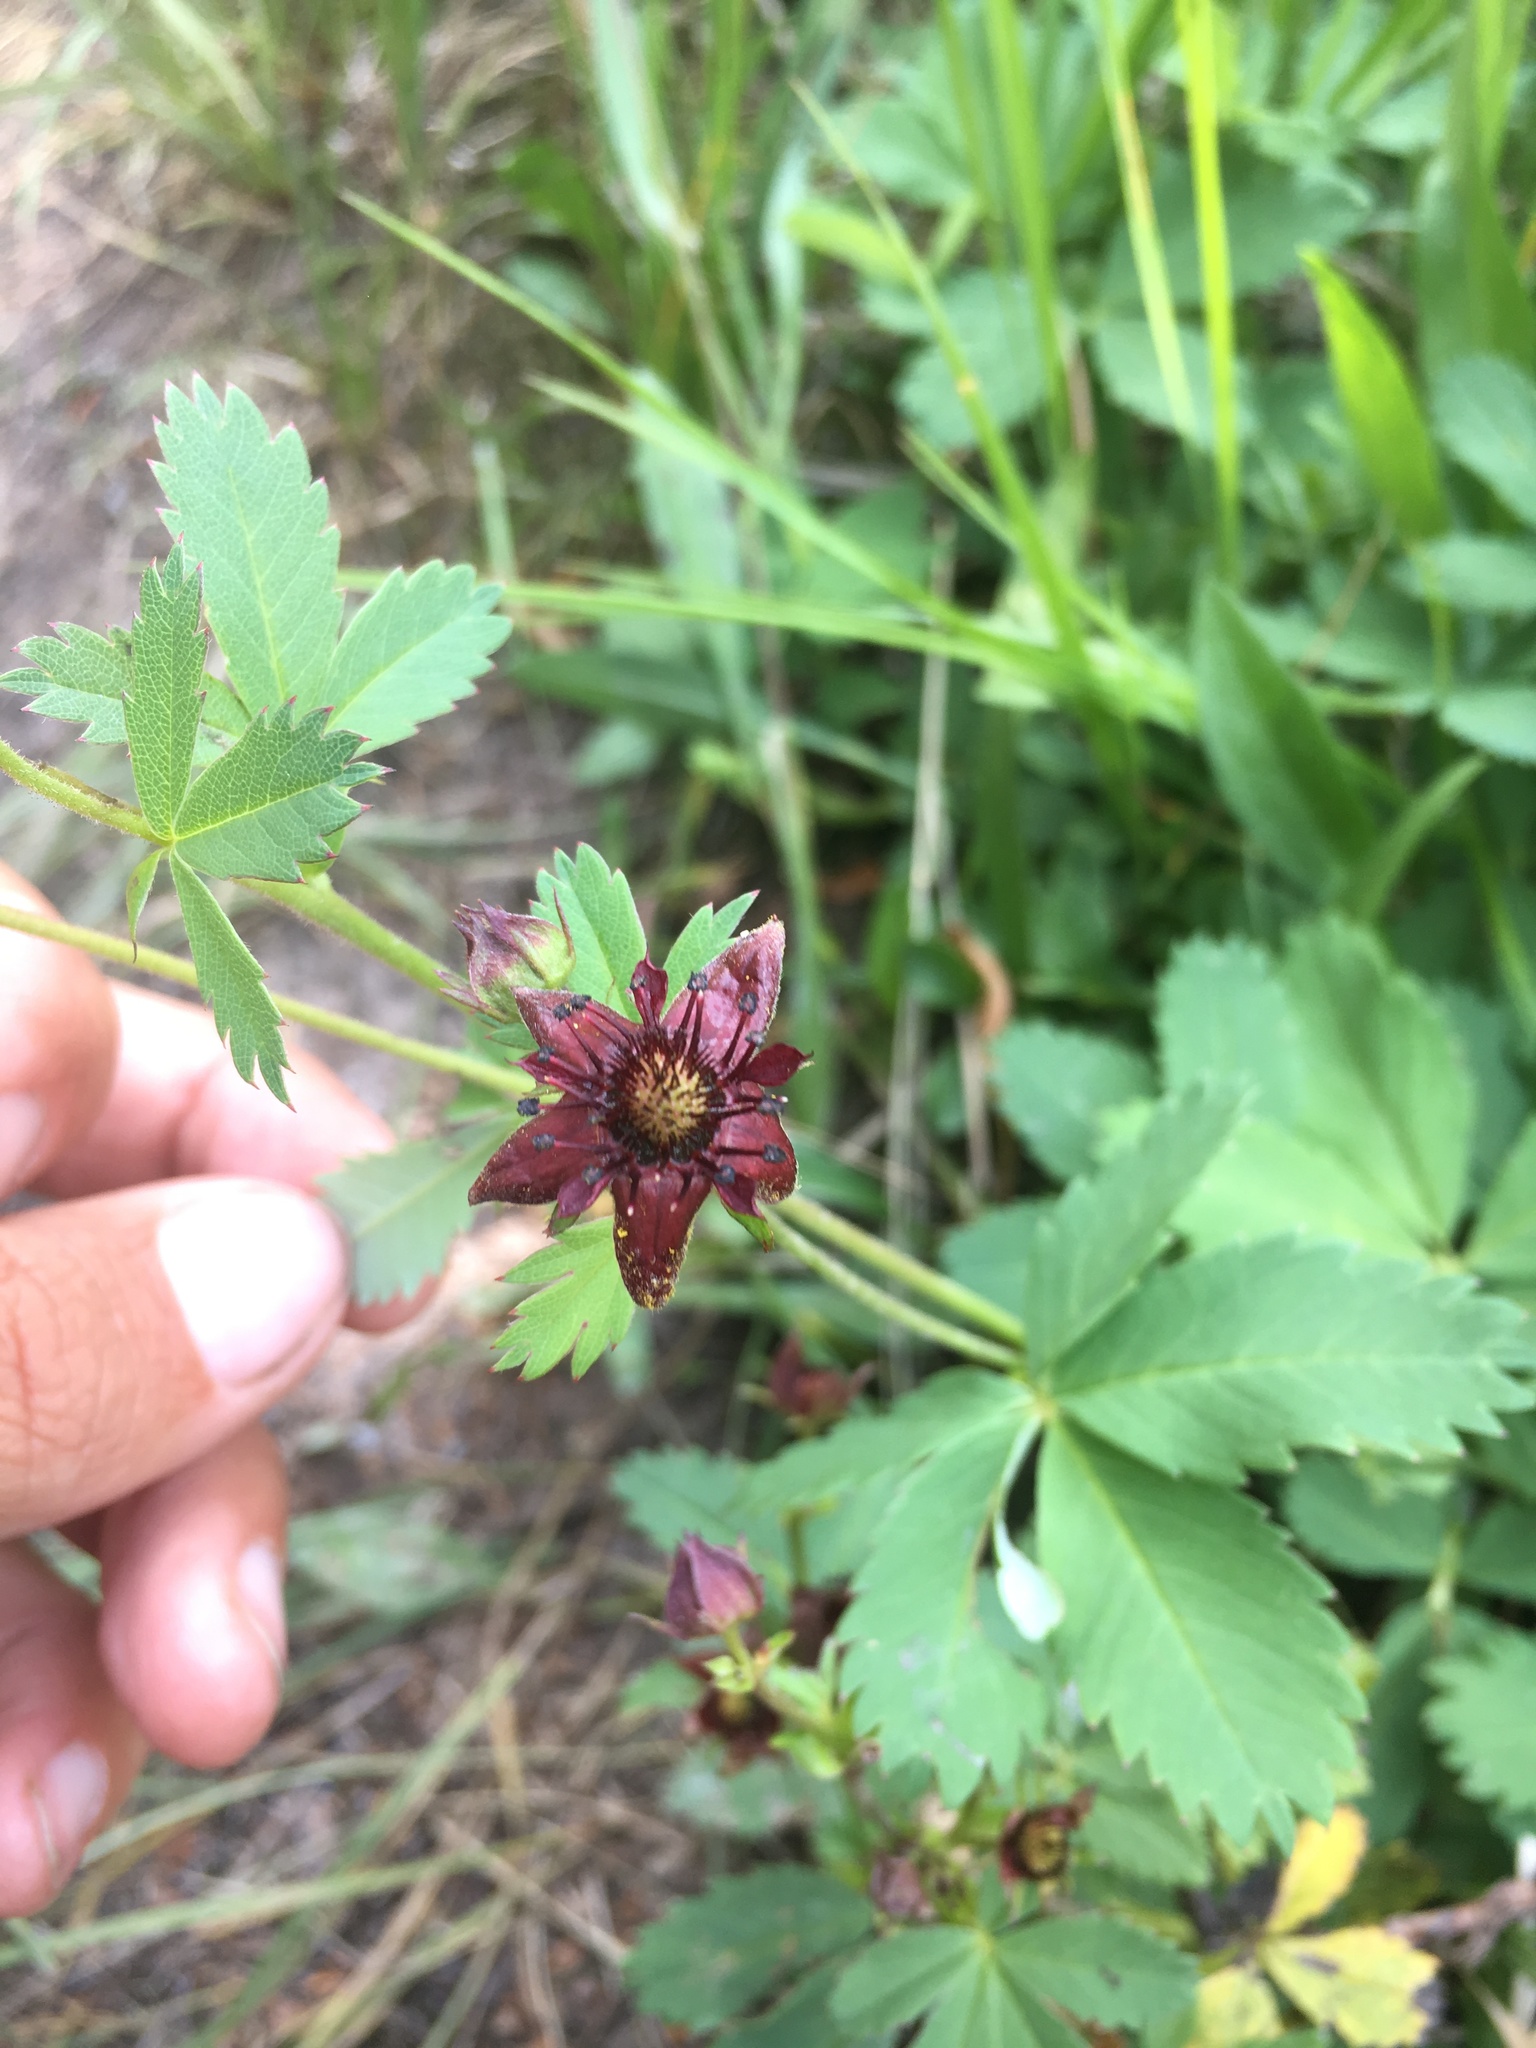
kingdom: Plantae
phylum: Tracheophyta
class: Magnoliopsida
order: Rosales
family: Rosaceae
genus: Comarum
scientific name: Comarum palustre
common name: Marsh cinquefoil
